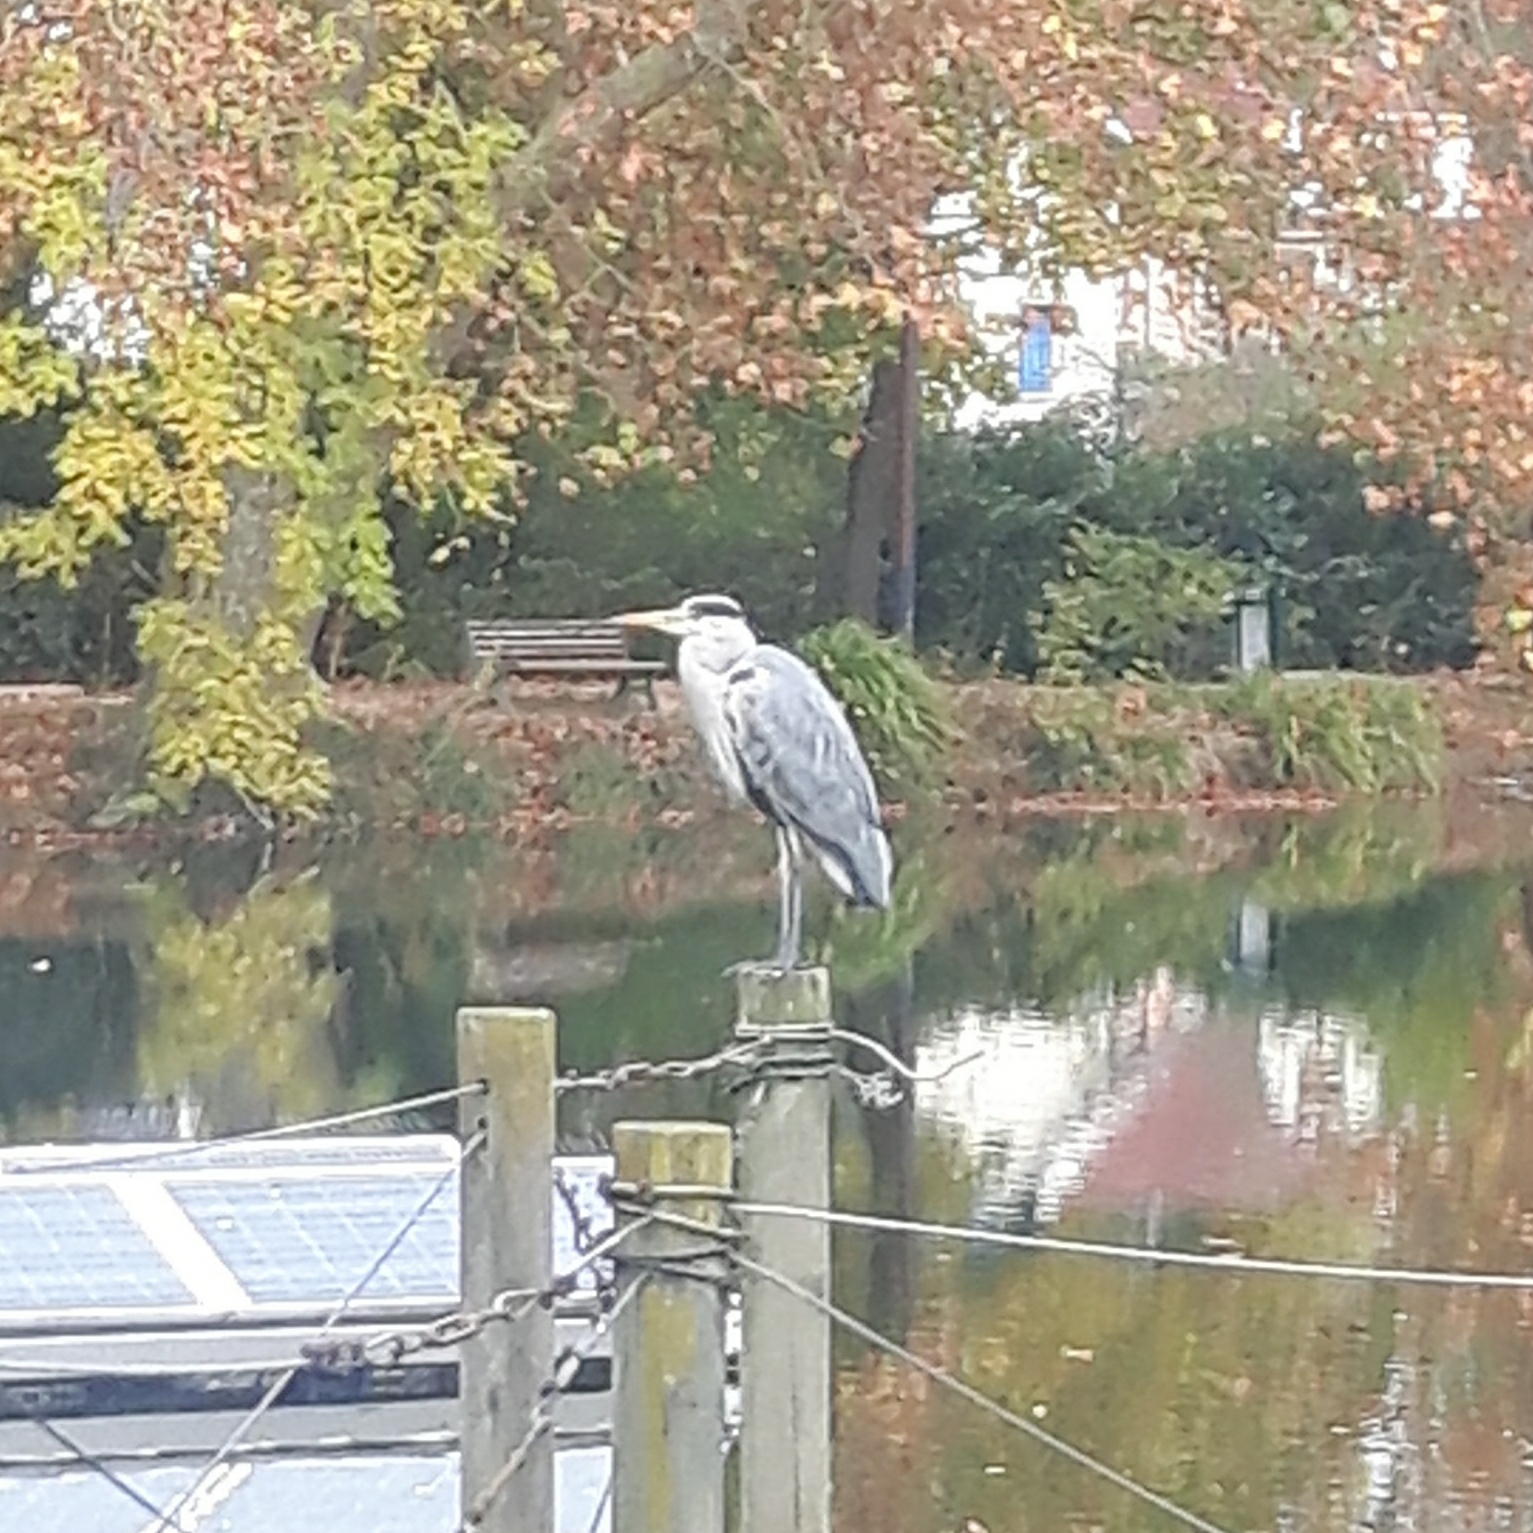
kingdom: Animalia
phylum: Chordata
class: Aves
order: Pelecaniformes
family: Ardeidae
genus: Ardea
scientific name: Ardea cinerea
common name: Grey heron
